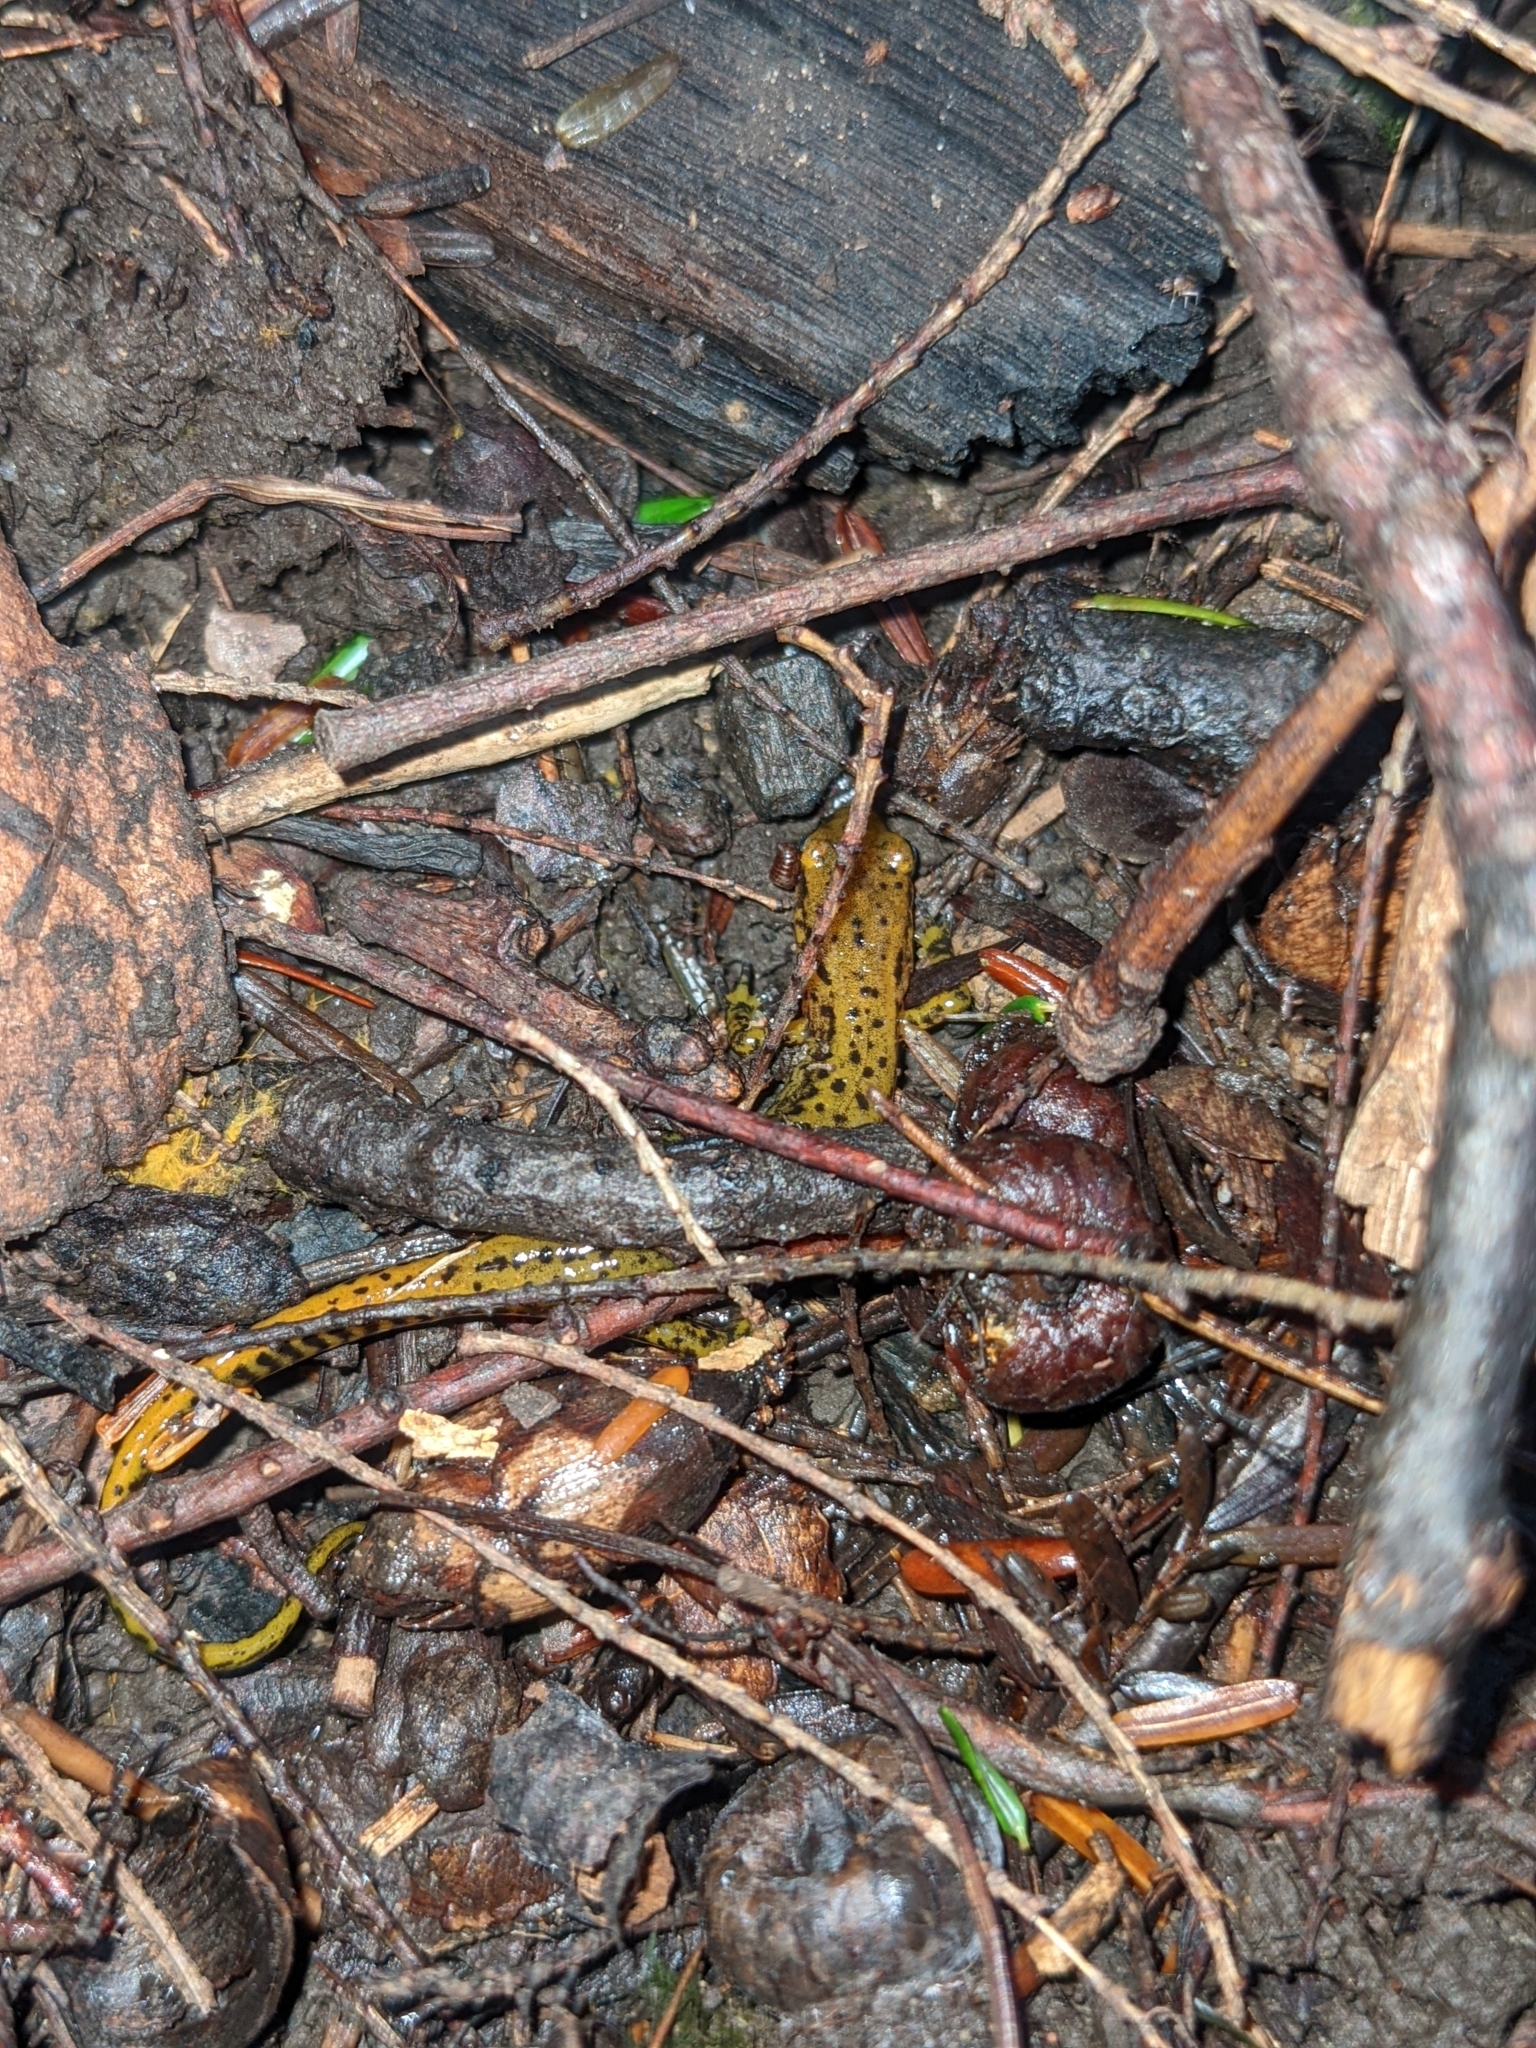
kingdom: Animalia
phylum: Chordata
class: Amphibia
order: Caudata
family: Plethodontidae
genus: Eurycea
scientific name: Eurycea longicauda
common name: Long-tailed salamander
